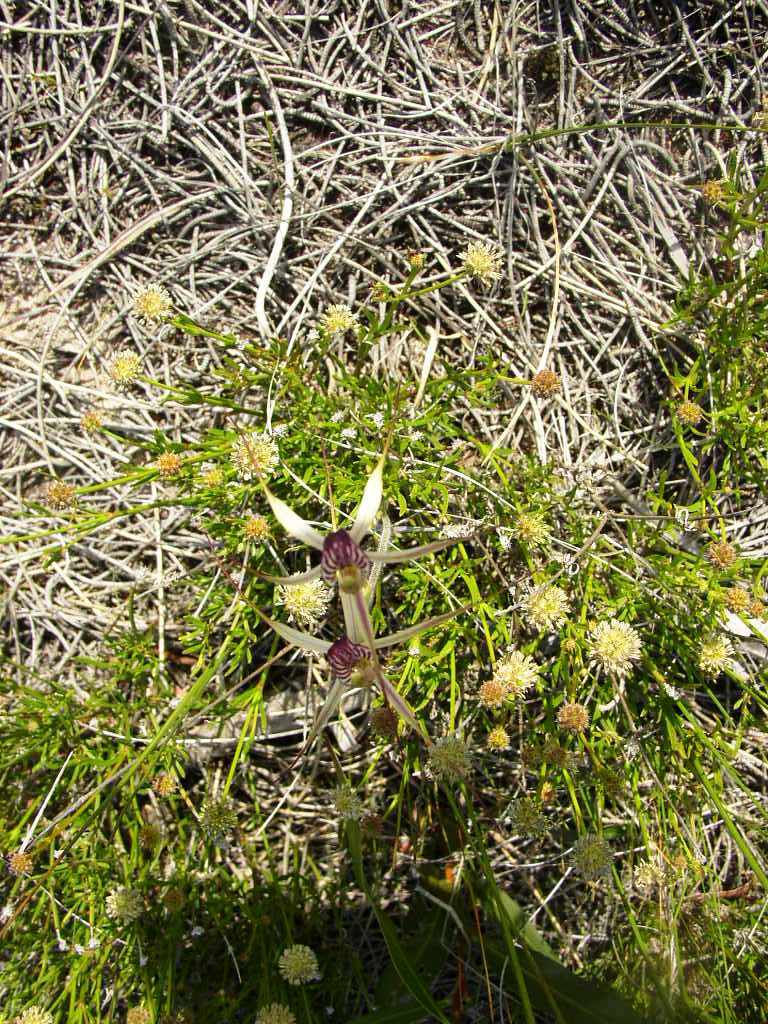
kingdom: Plantae
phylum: Tracheophyta
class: Liliopsida
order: Asparagales
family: Orchidaceae
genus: Caladenia
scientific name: Caladenia radialis
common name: Drooping spider orchid
